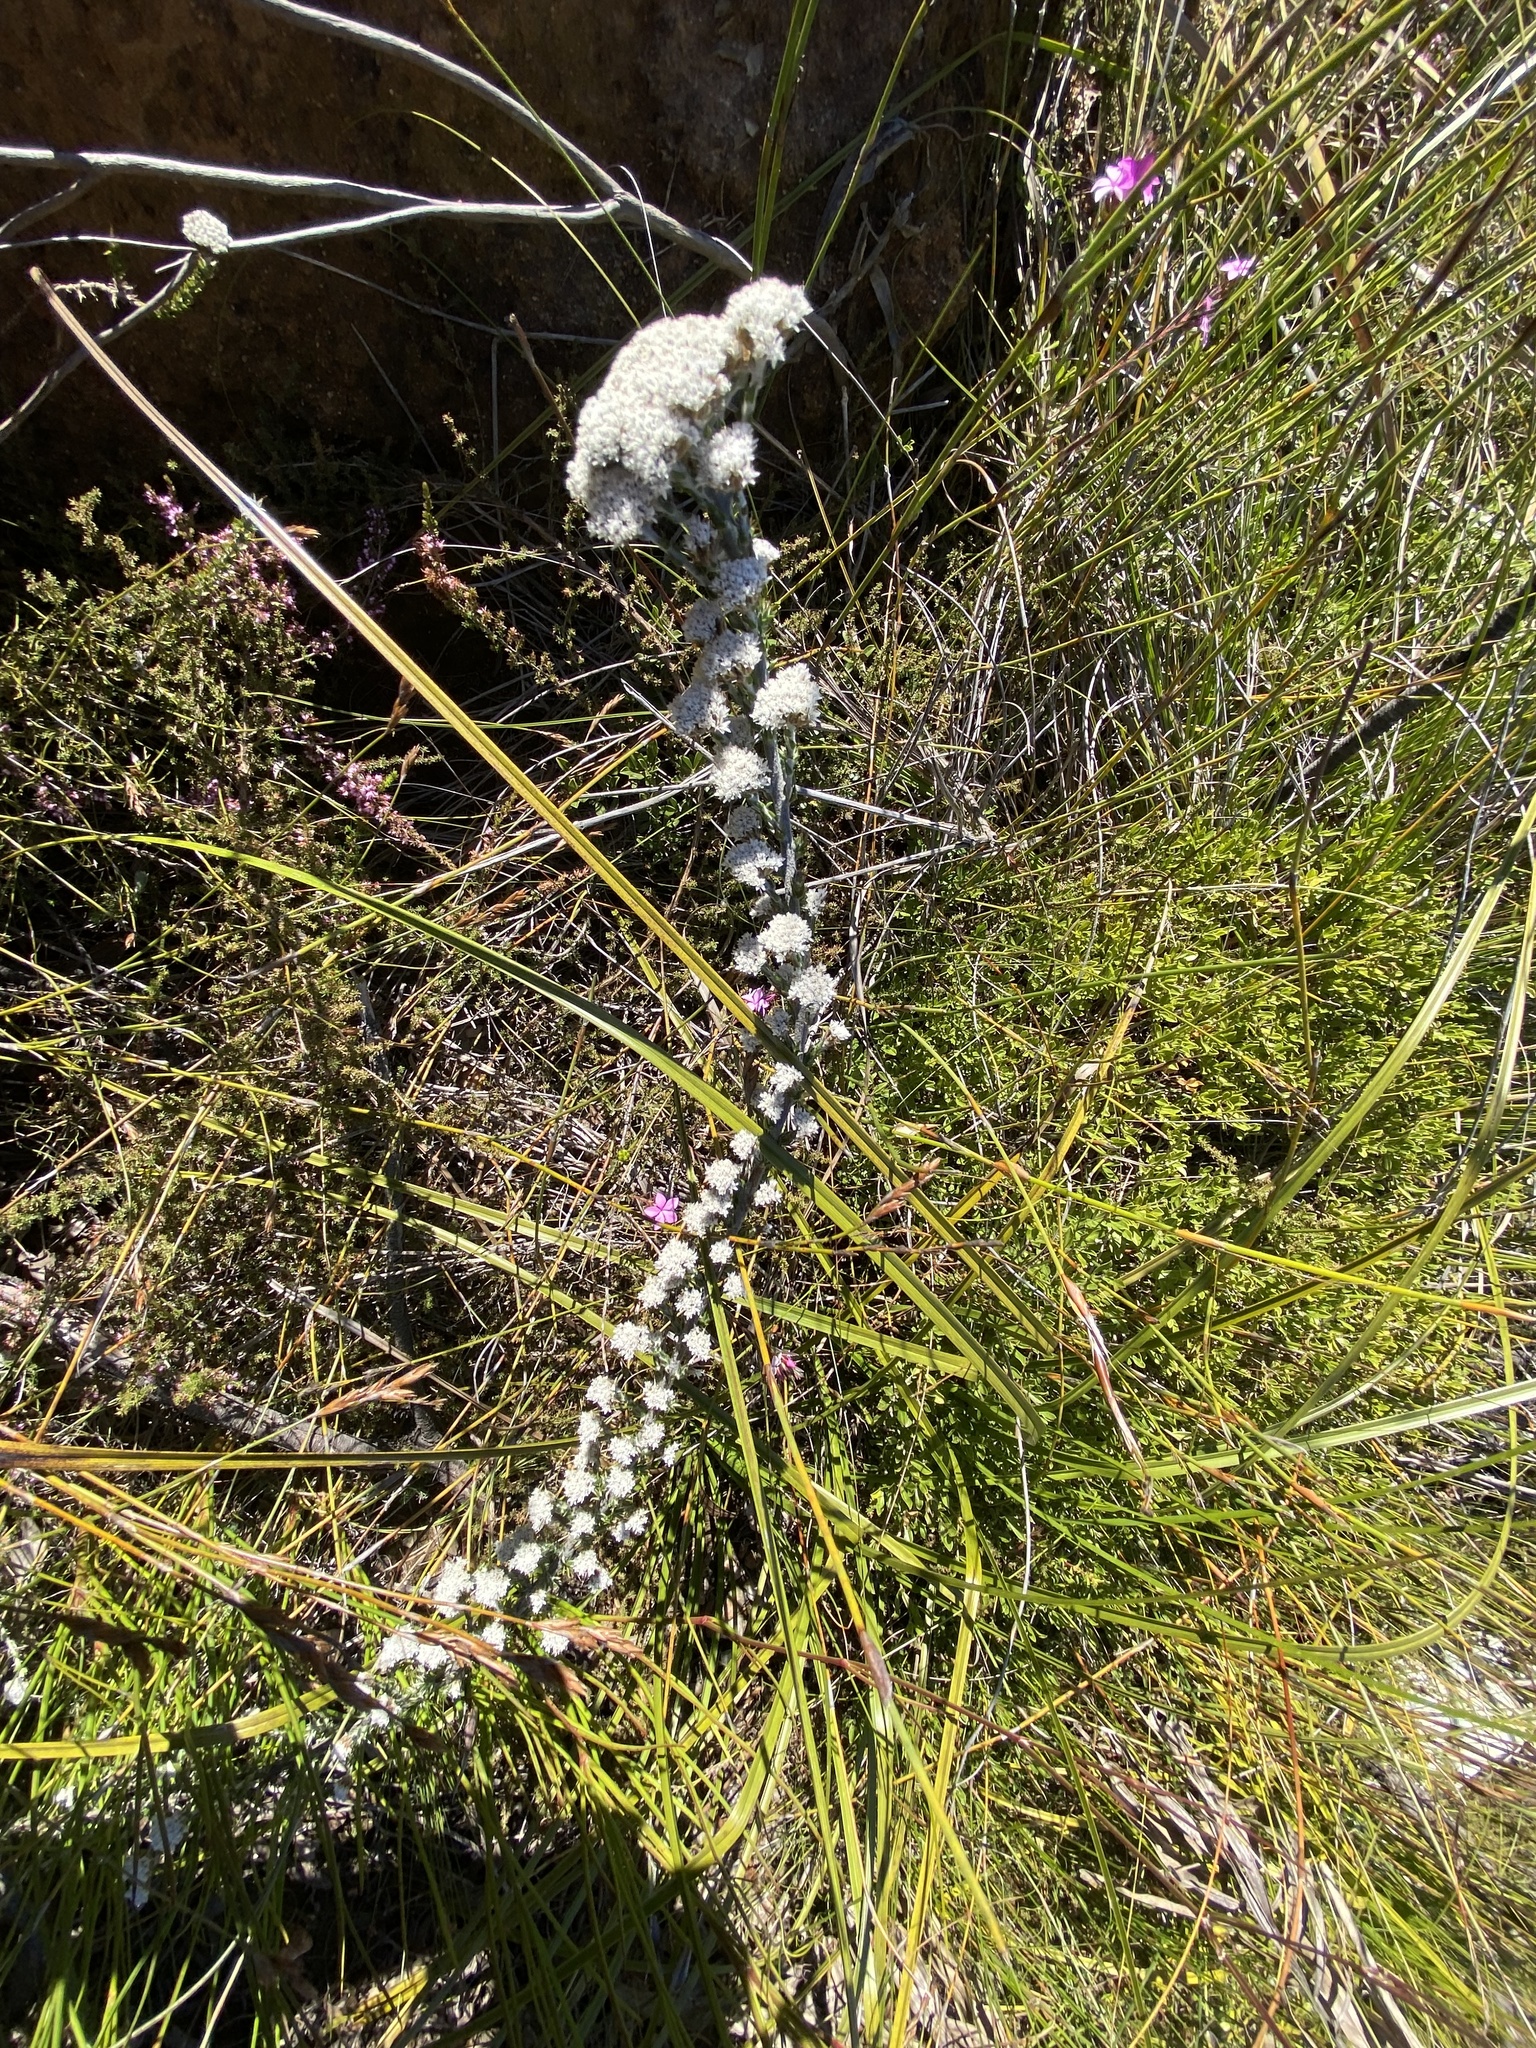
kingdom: Plantae
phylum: Tracheophyta
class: Magnoliopsida
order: Asterales
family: Asteraceae
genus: Metalasia
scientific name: Metalasia galpinii
